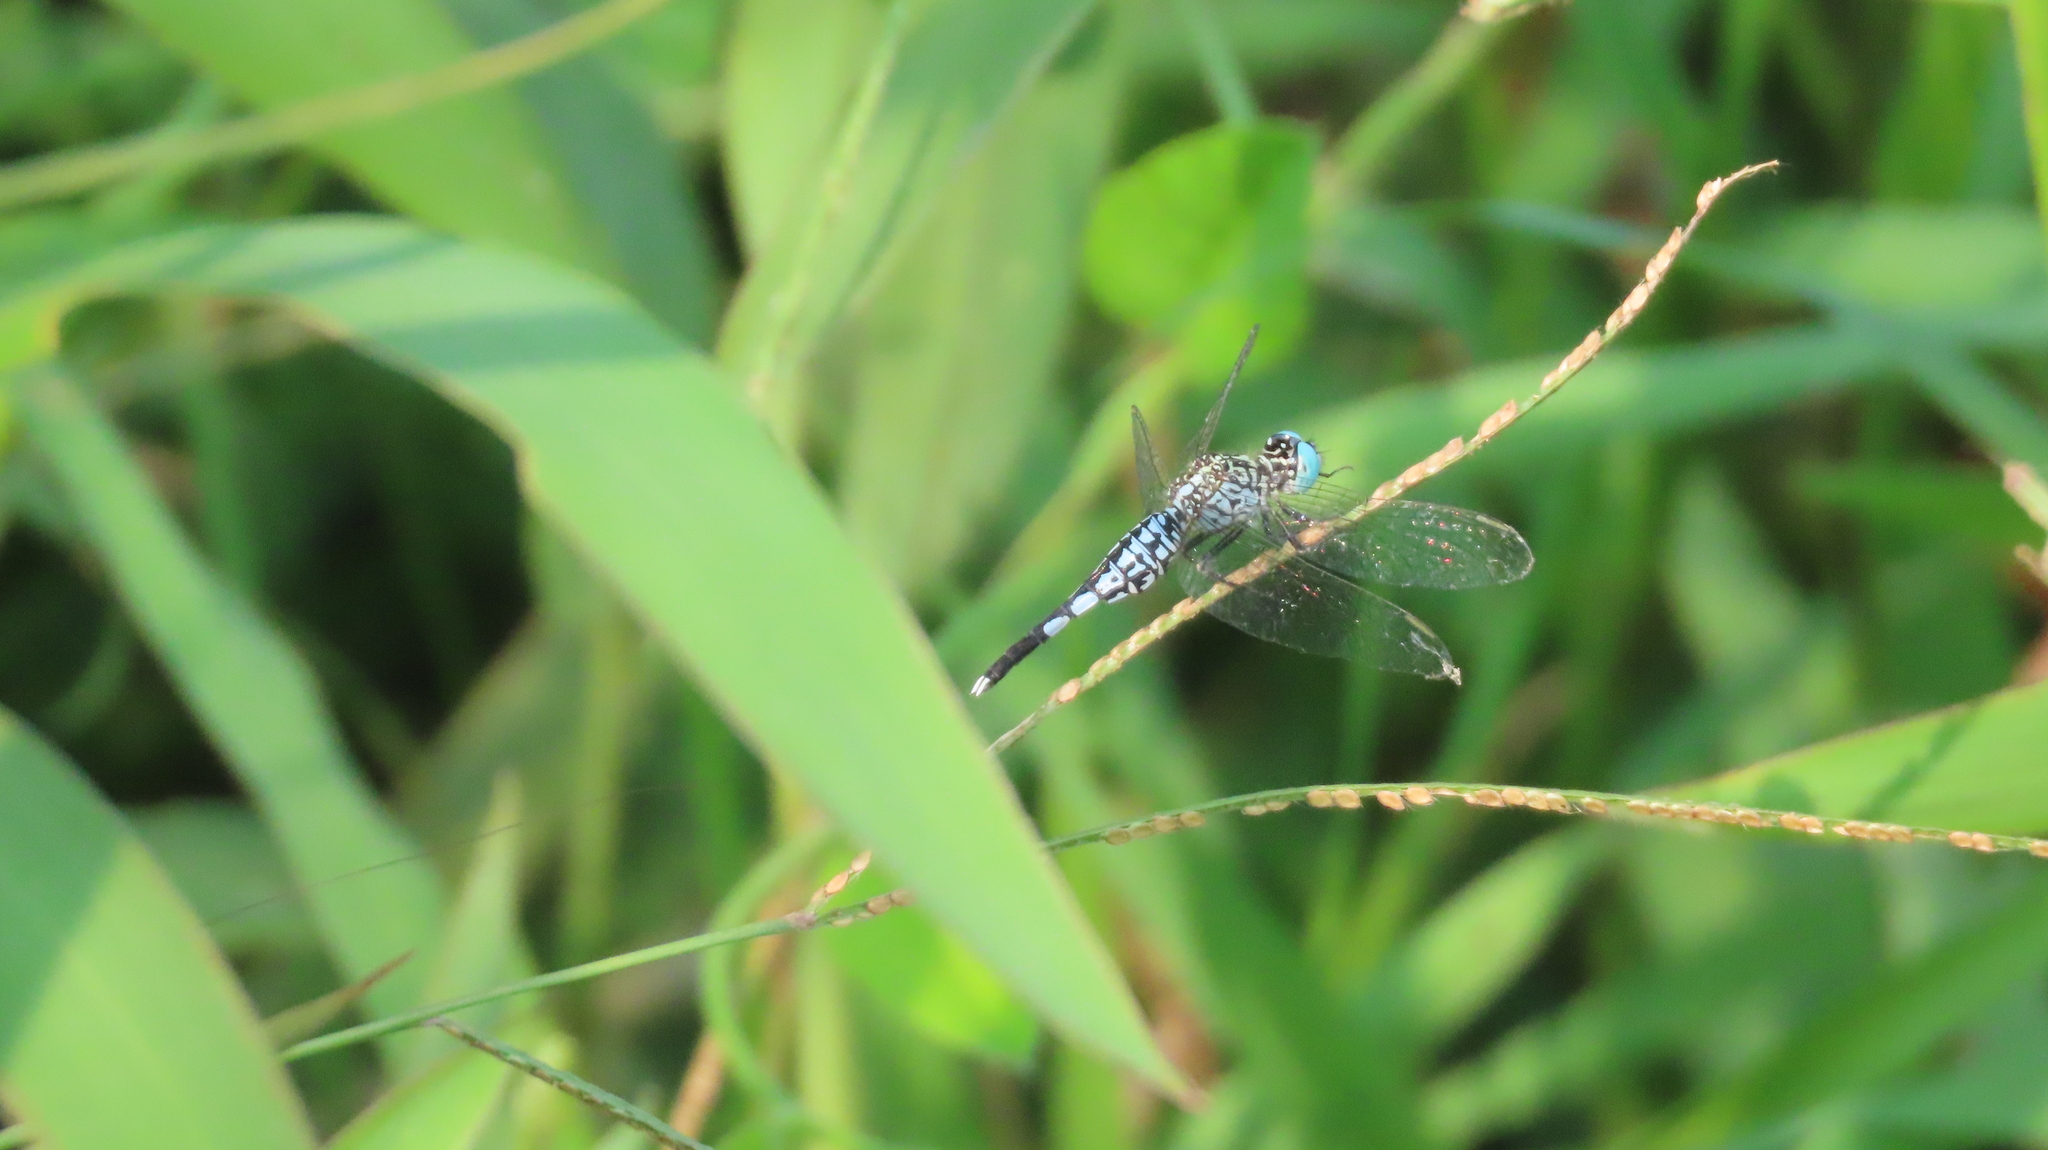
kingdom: Animalia
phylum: Arthropoda
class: Insecta
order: Odonata
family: Libellulidae
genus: Acisoma
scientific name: Acisoma panorpoides
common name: Asian pintail
